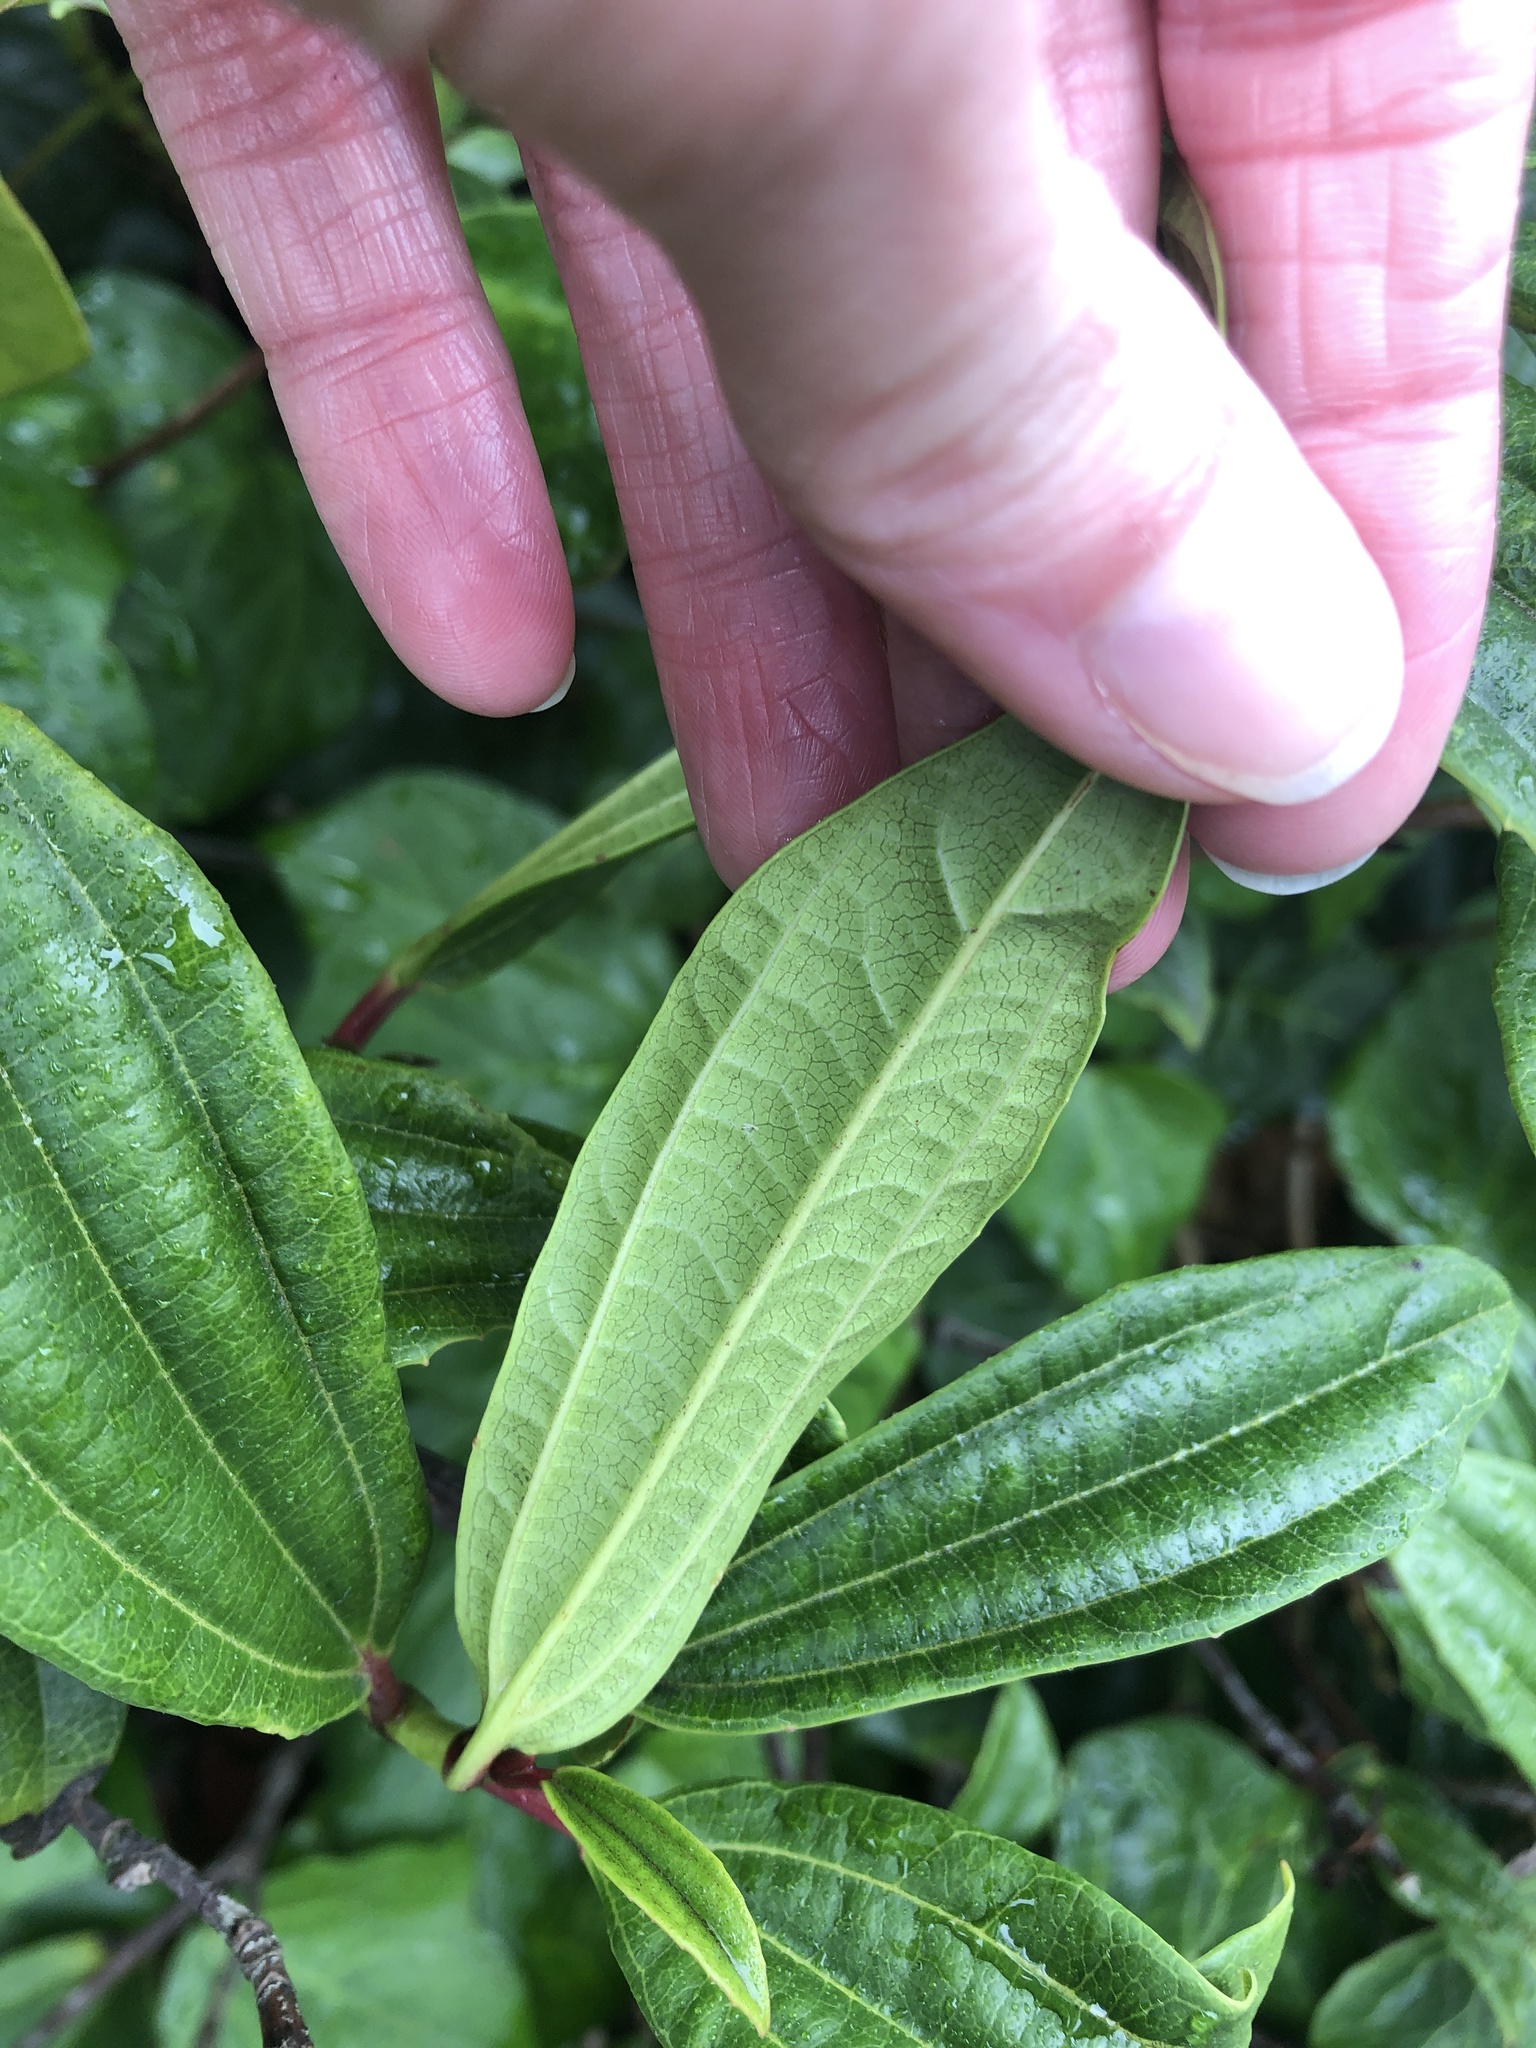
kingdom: Plantae
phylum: Tracheophyta
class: Magnoliopsida
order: Dipsacales
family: Viburnaceae
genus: Viburnum
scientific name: Viburnum davidi
